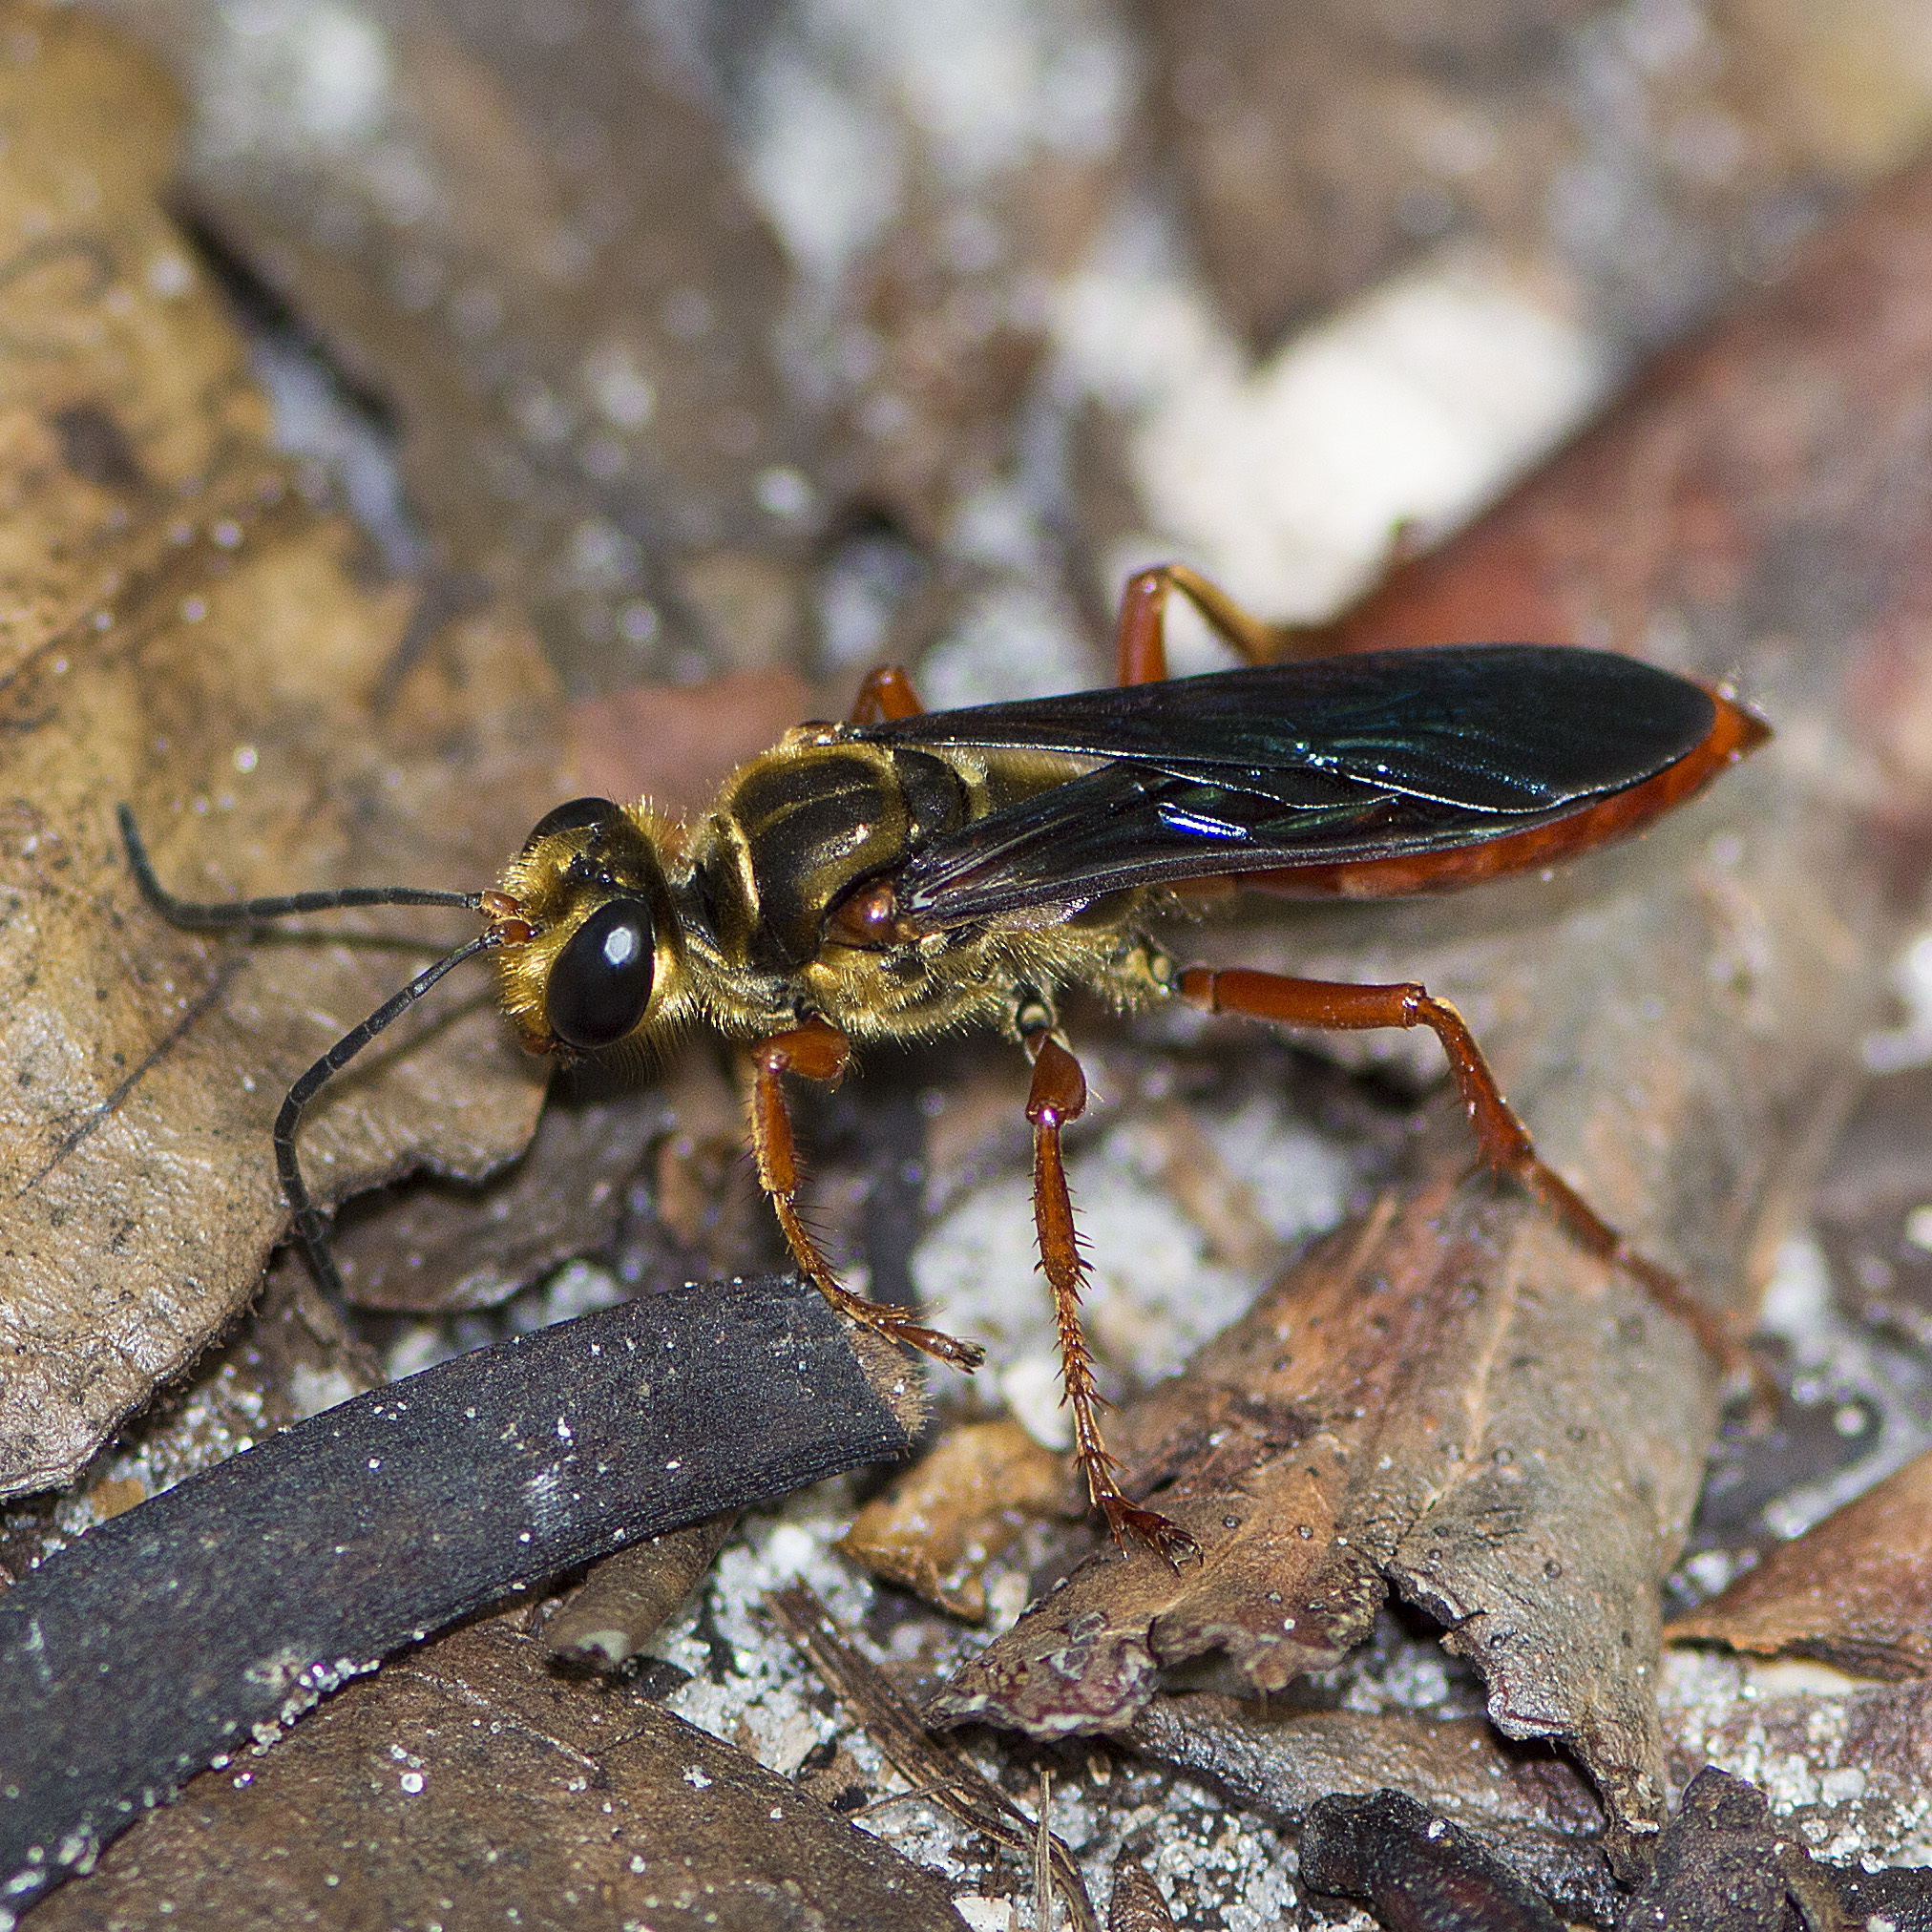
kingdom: Animalia
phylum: Arthropoda
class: Insecta
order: Hymenoptera
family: Sphecidae
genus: Sphex
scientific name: Sphex jamaicensis
